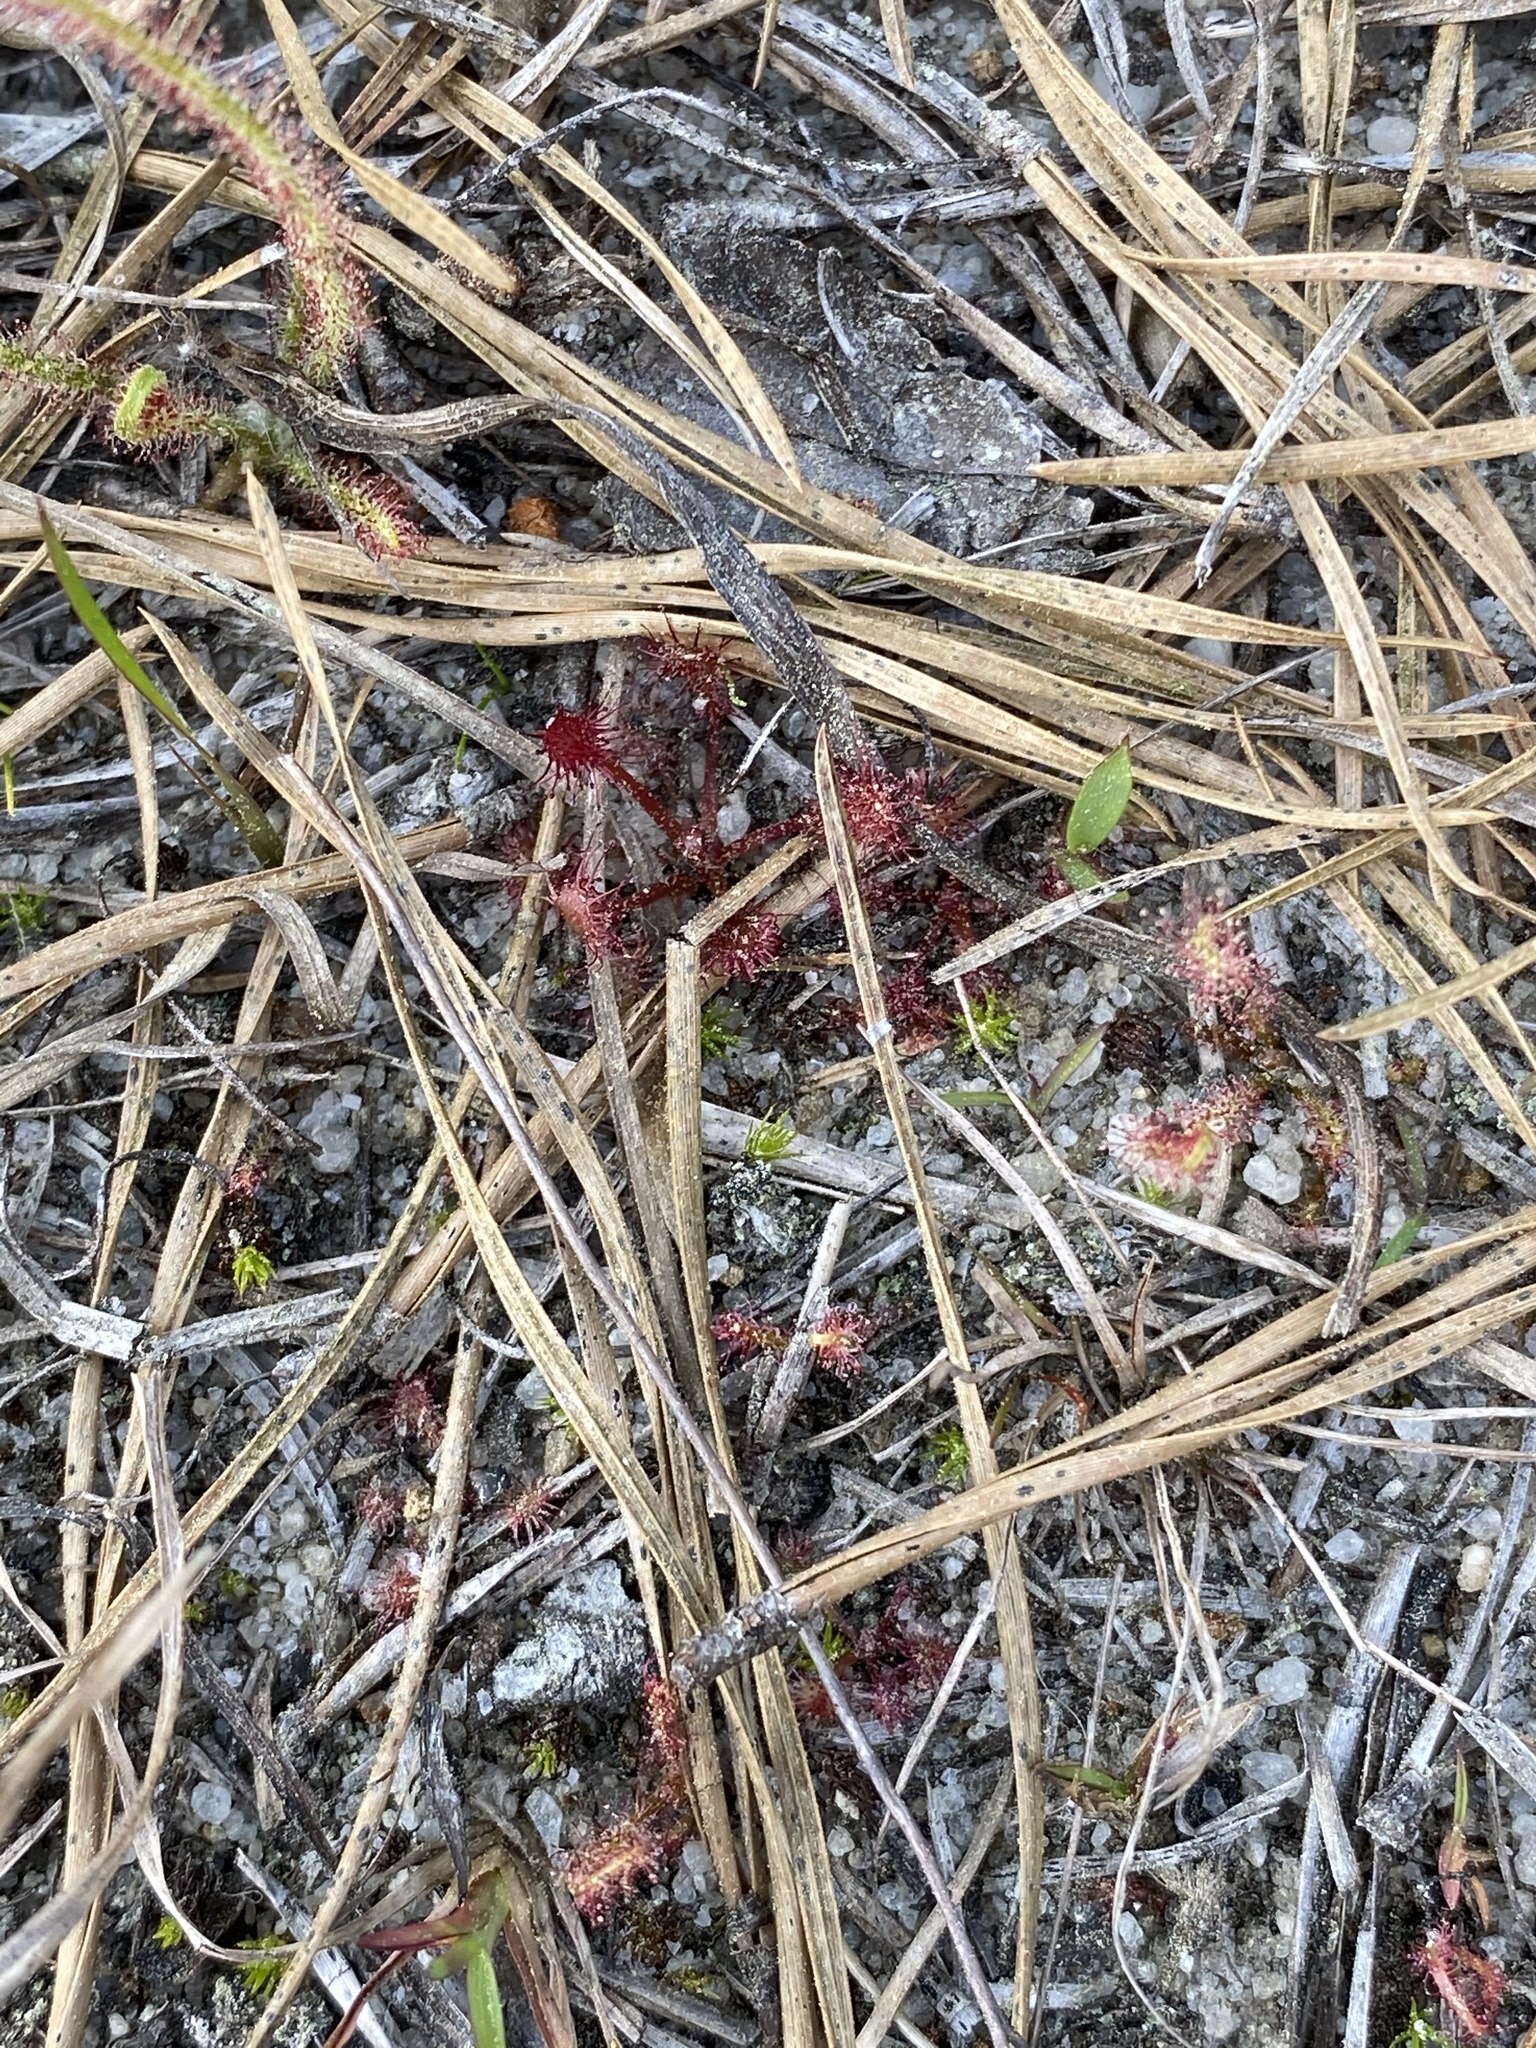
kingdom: Plantae
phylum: Tracheophyta
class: Magnoliopsida
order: Caryophyllales
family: Droseraceae
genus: Drosera
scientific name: Drosera intermedia
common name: Oblong-leaved sundew
